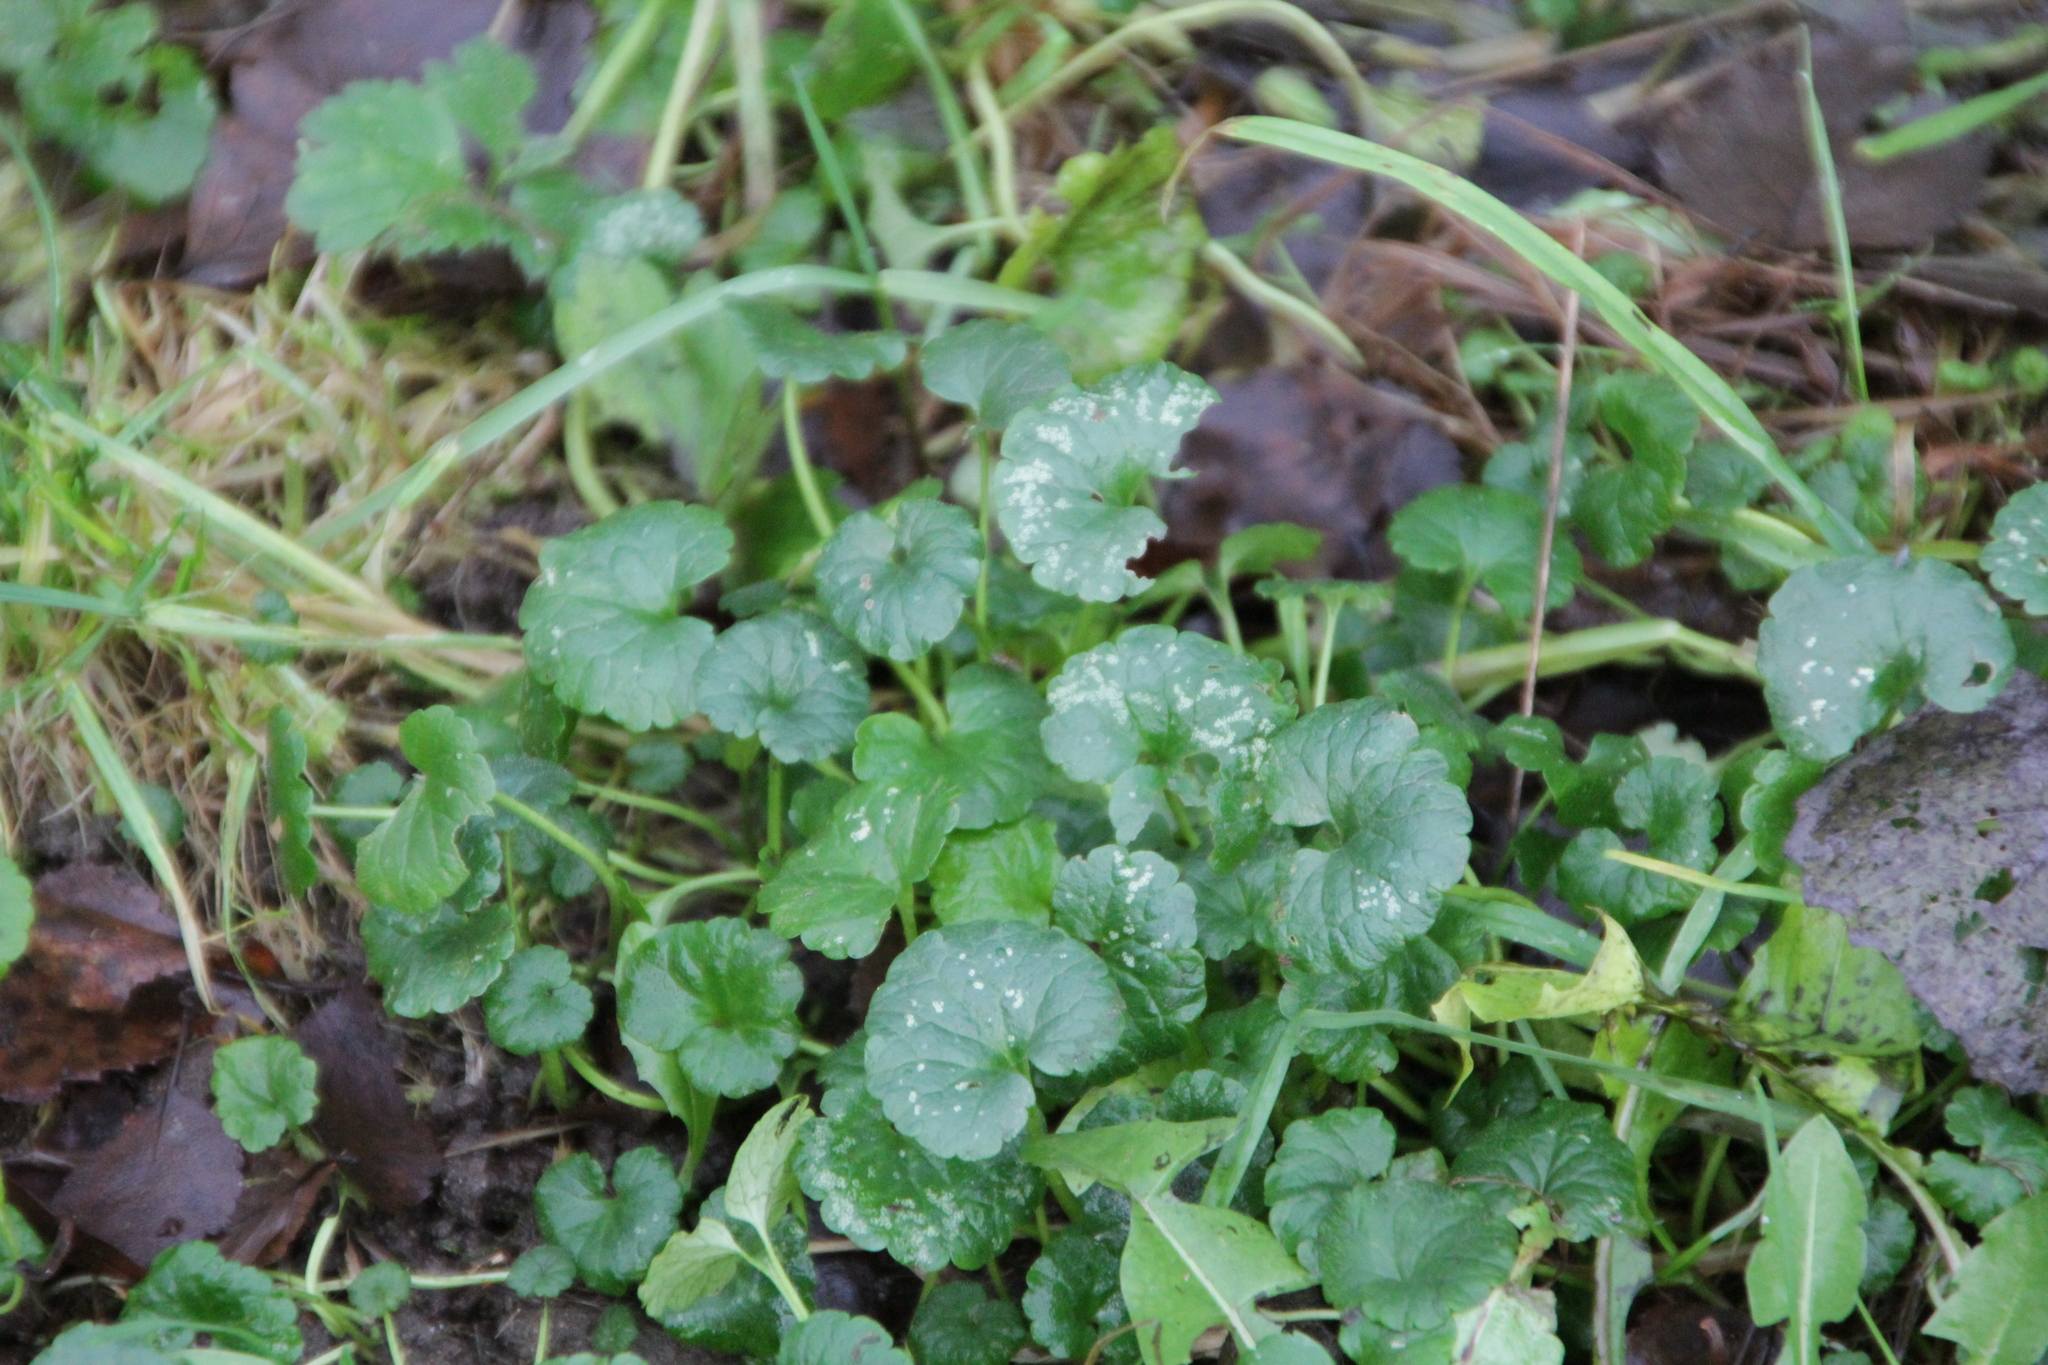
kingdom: Plantae
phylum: Tracheophyta
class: Magnoliopsida
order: Lamiales
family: Lamiaceae
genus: Glechoma
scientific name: Glechoma hederacea
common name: Ground ivy
